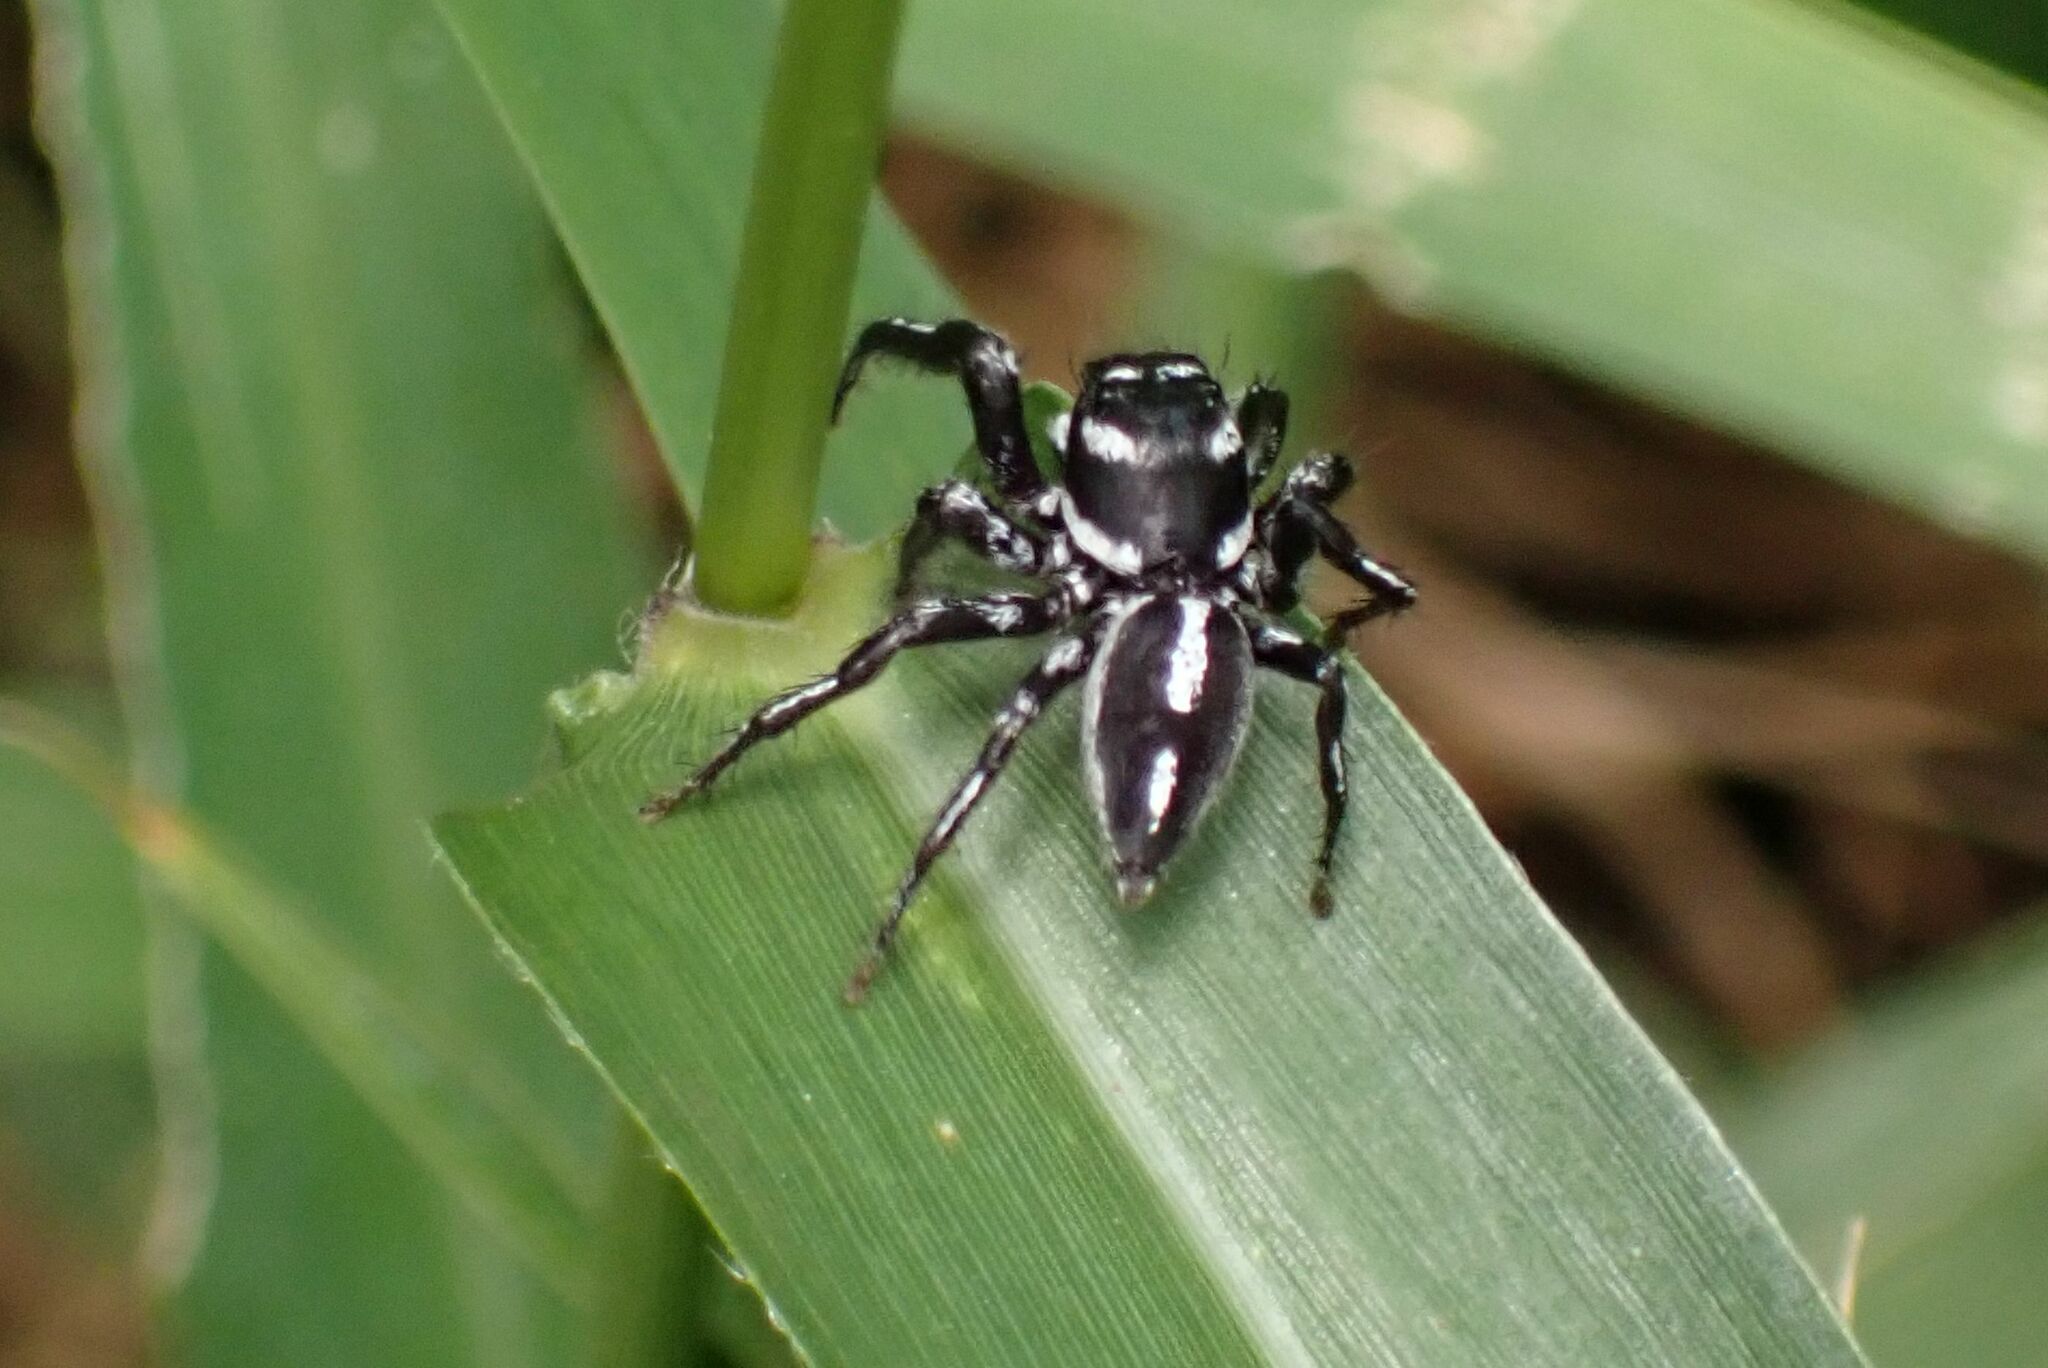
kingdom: Animalia
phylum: Arthropoda
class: Arachnida
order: Araneae
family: Salticidae
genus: Hyllus
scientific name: Hyllus argyrotoxus
